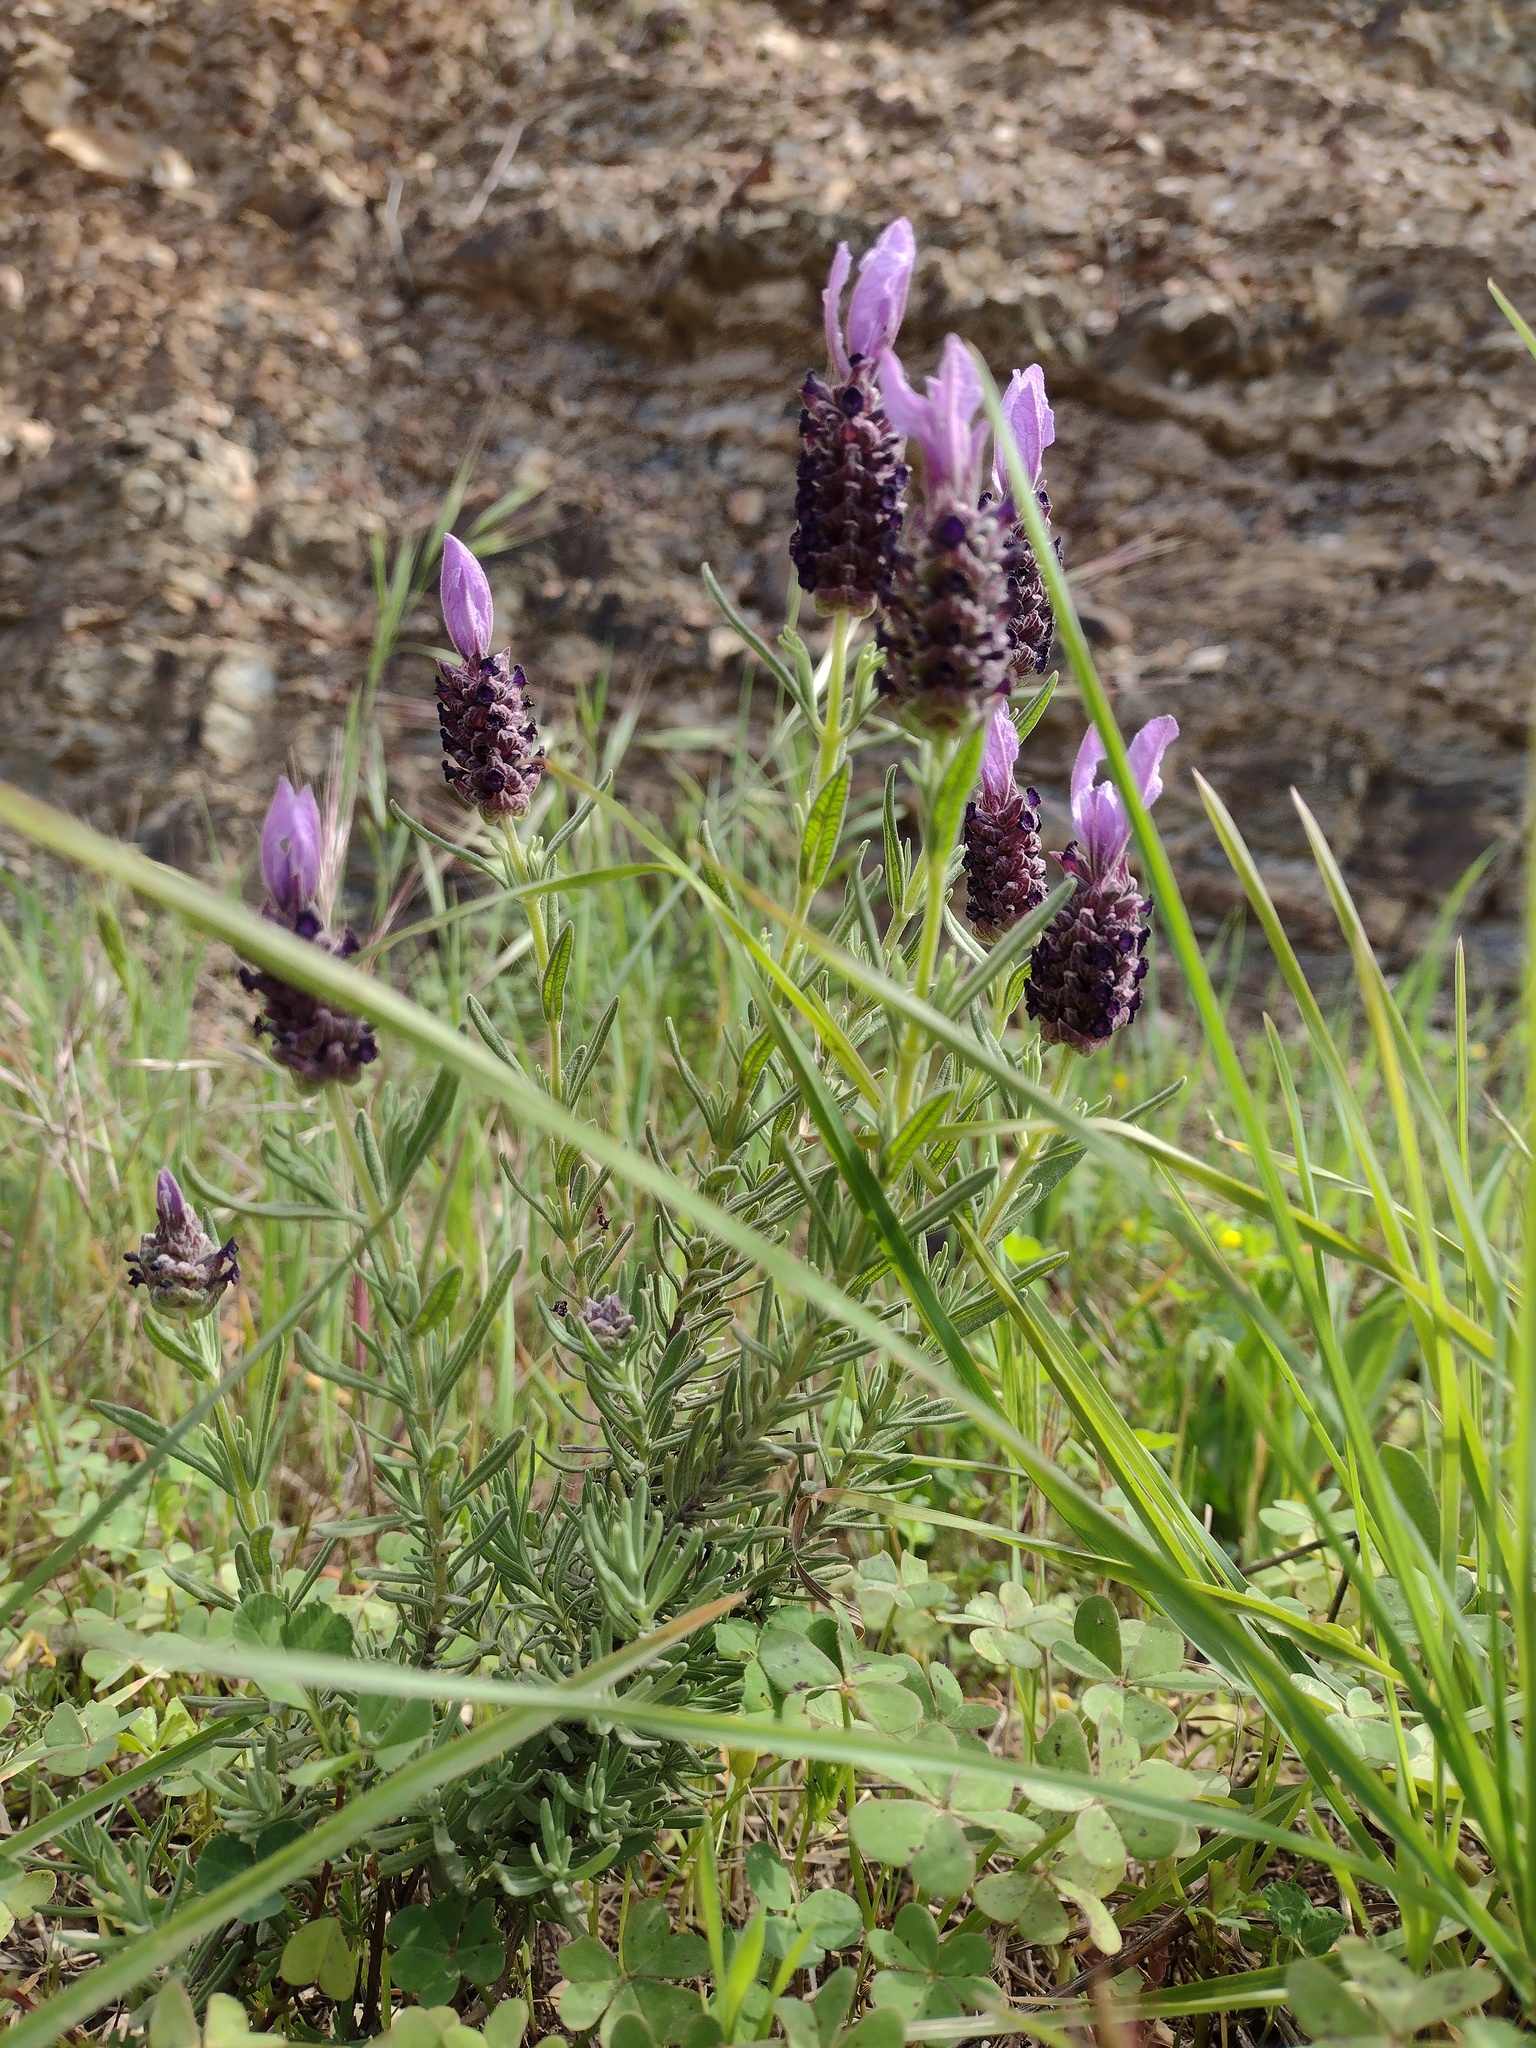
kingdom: Plantae
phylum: Tracheophyta
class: Magnoliopsida
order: Lamiales
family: Lamiaceae
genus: Lavandula
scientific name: Lavandula stoechas
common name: French lavender
